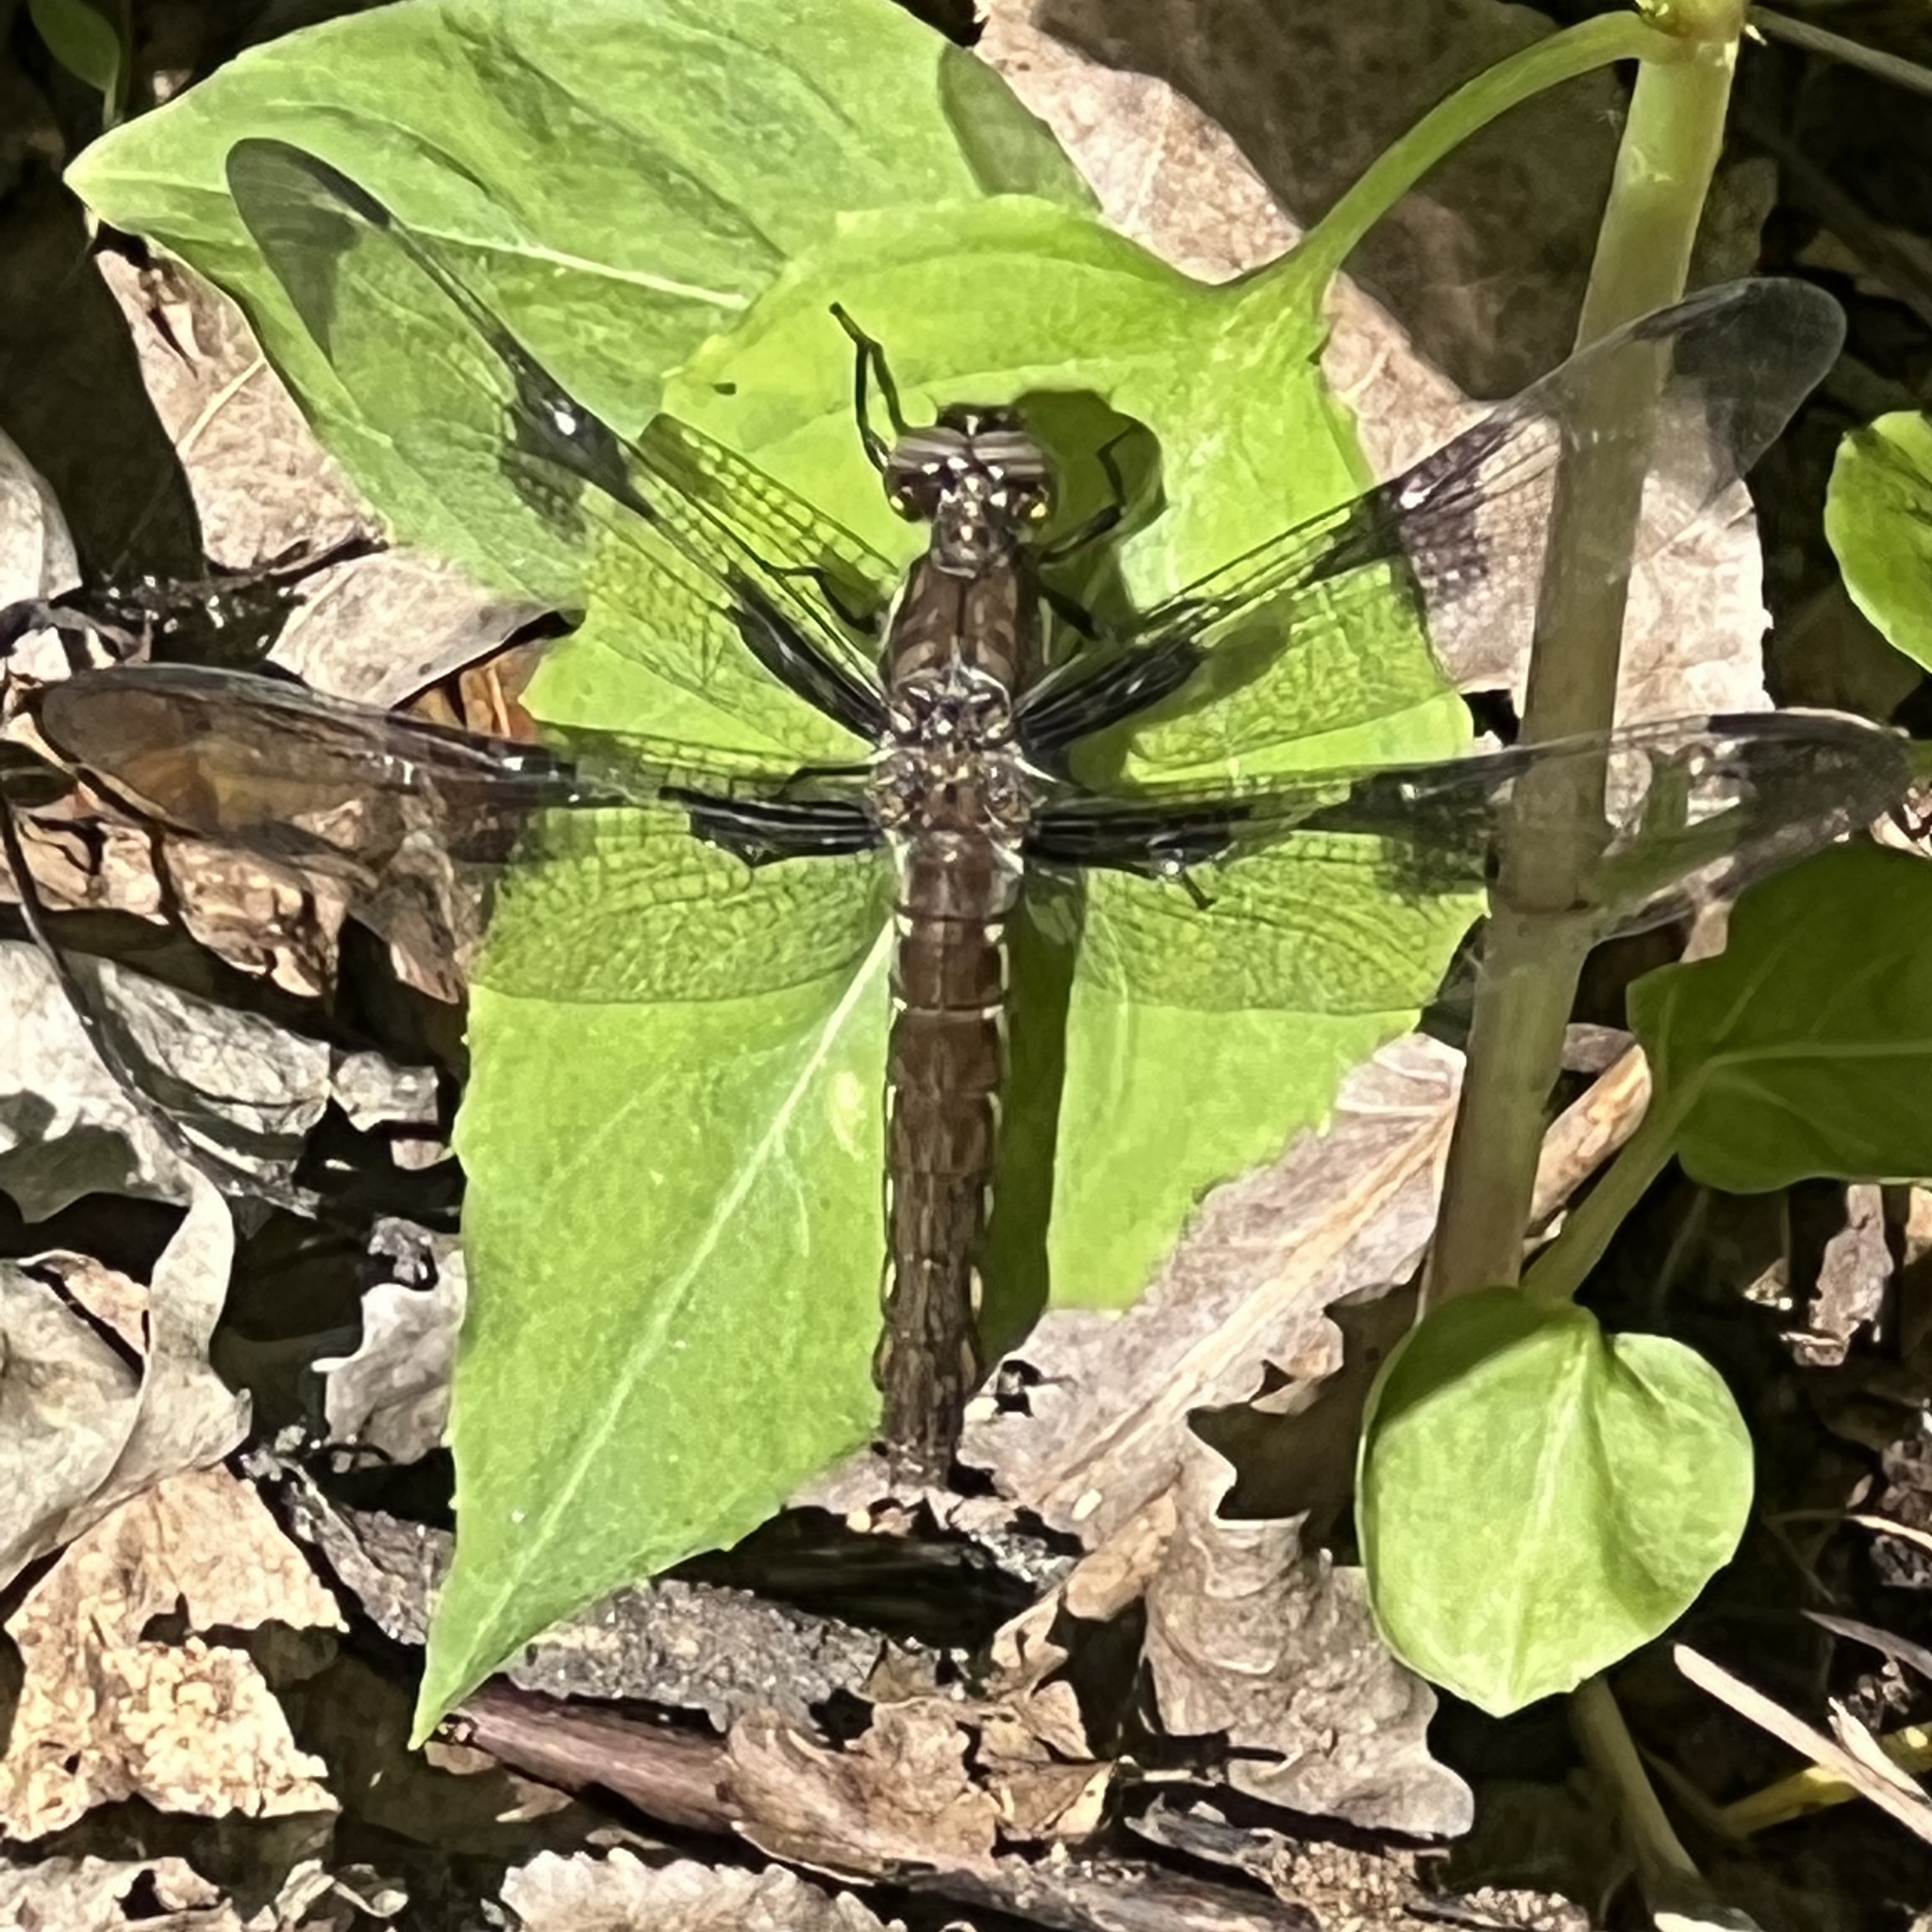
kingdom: Animalia
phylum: Arthropoda
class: Insecta
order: Odonata
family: Libellulidae
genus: Plathemis
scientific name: Plathemis lydia
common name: Common whitetail
